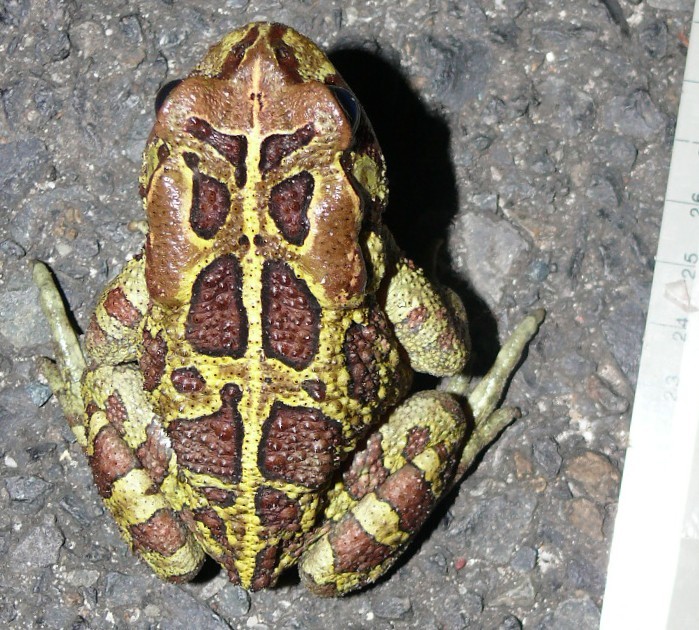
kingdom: Animalia
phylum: Chordata
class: Amphibia
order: Anura
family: Bufonidae
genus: Sclerophrys
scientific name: Sclerophrys pantherina
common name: Panther toad
